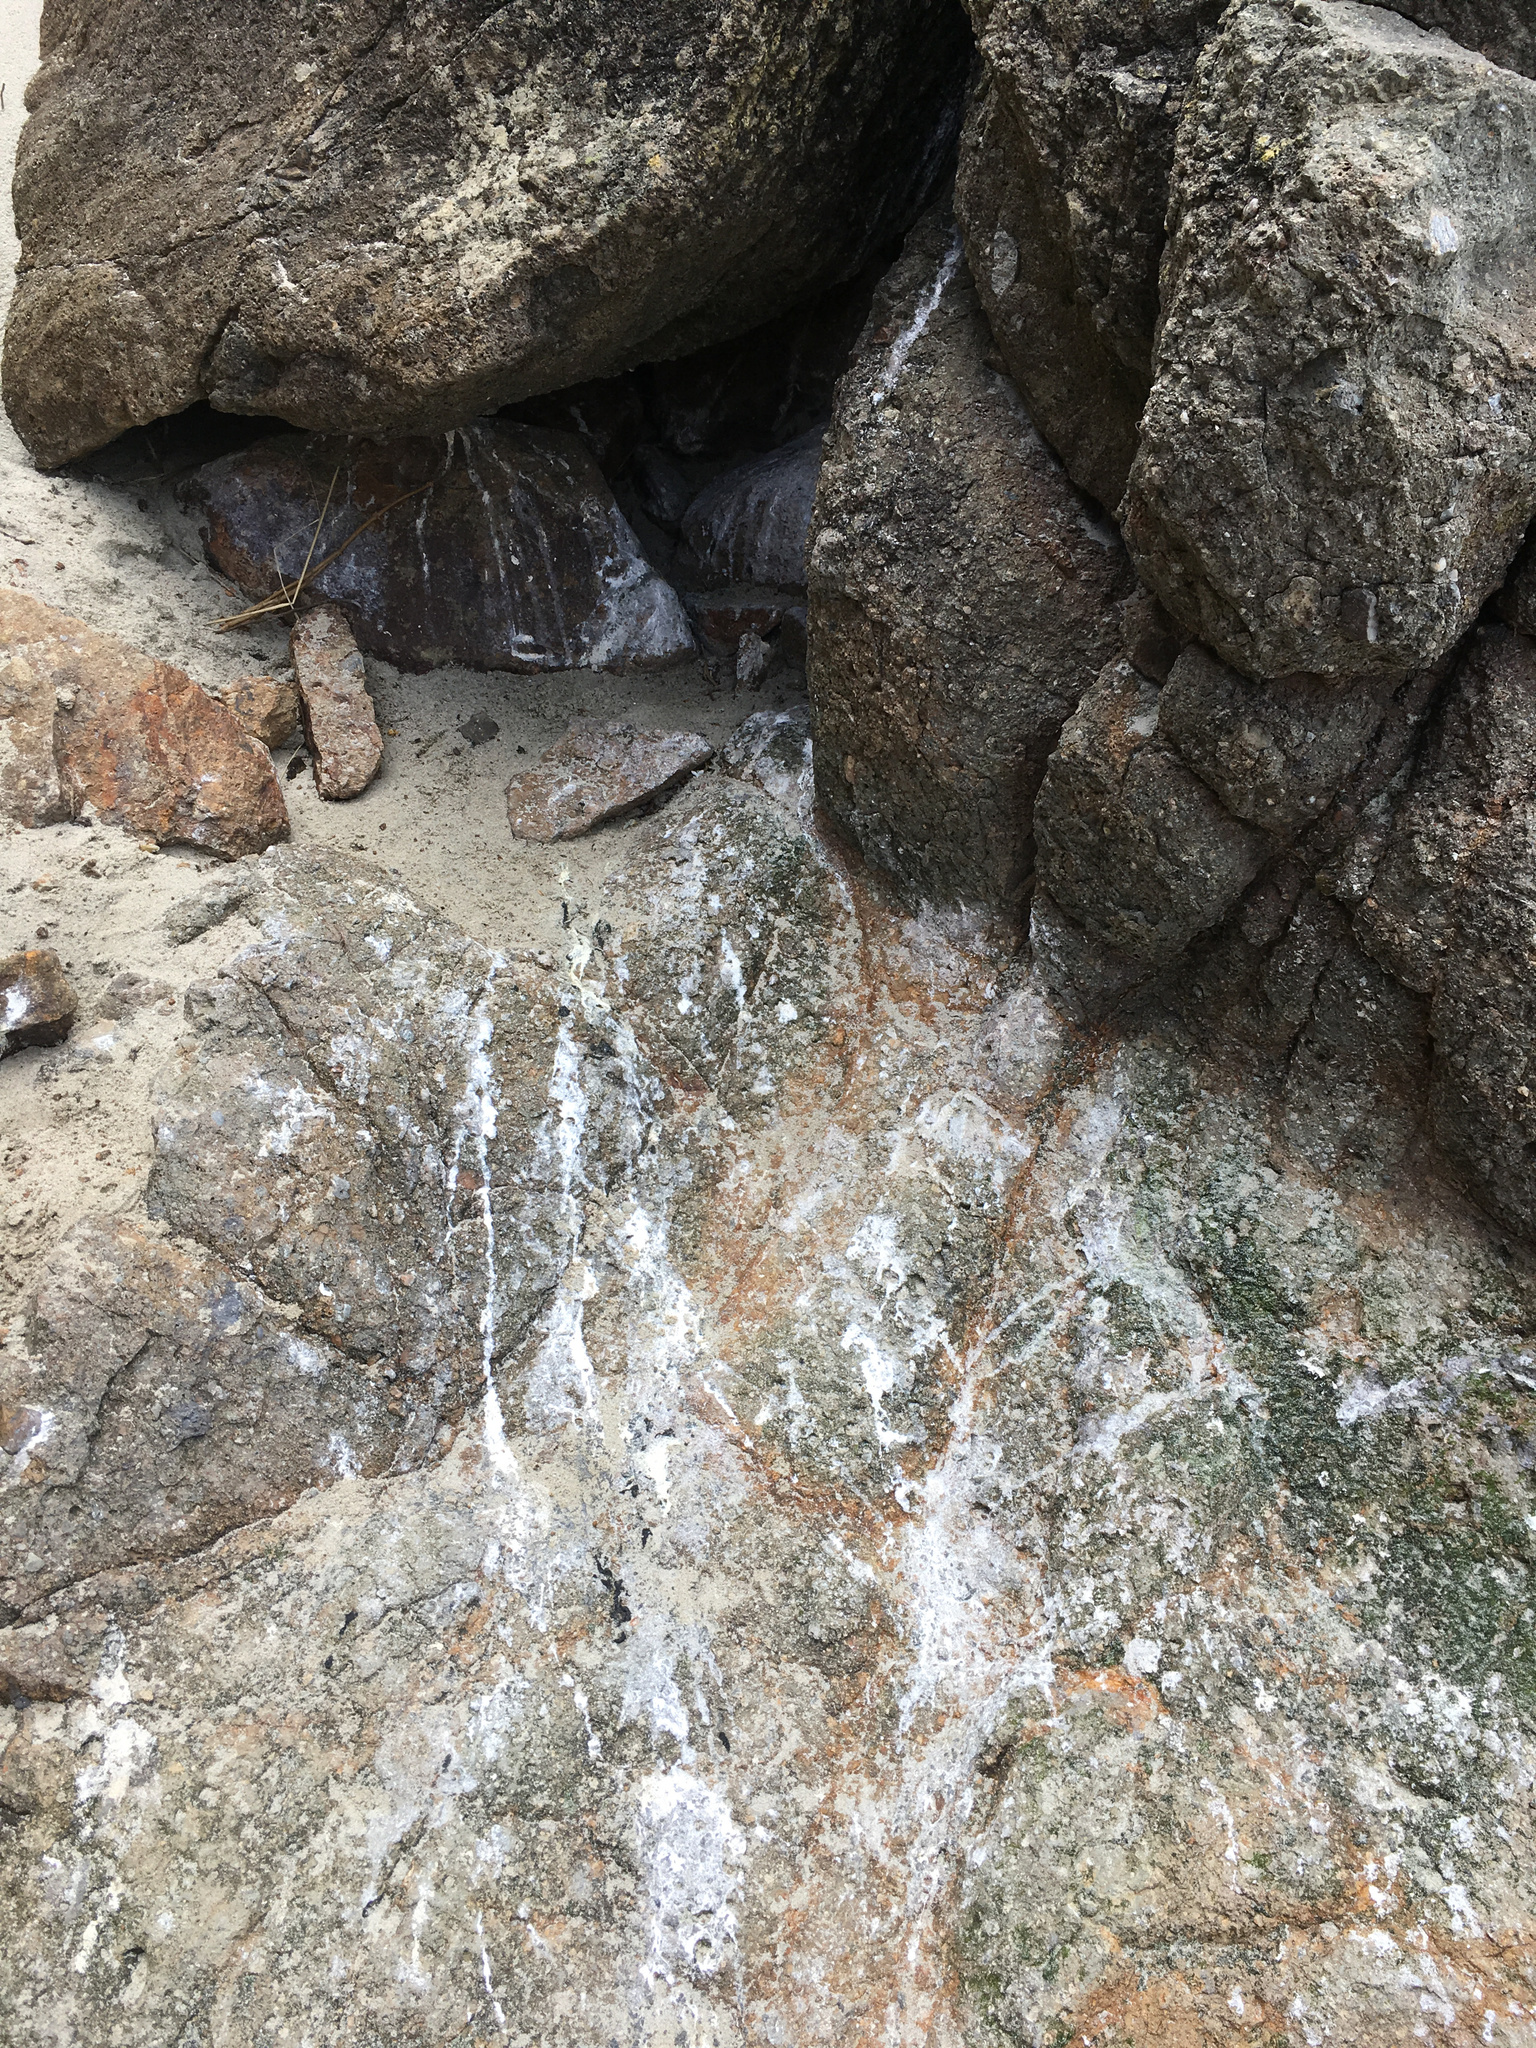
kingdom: Animalia
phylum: Chordata
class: Aves
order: Sphenisciformes
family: Spheniscidae
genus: Eudyptula
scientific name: Eudyptula minor
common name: Little penguin
